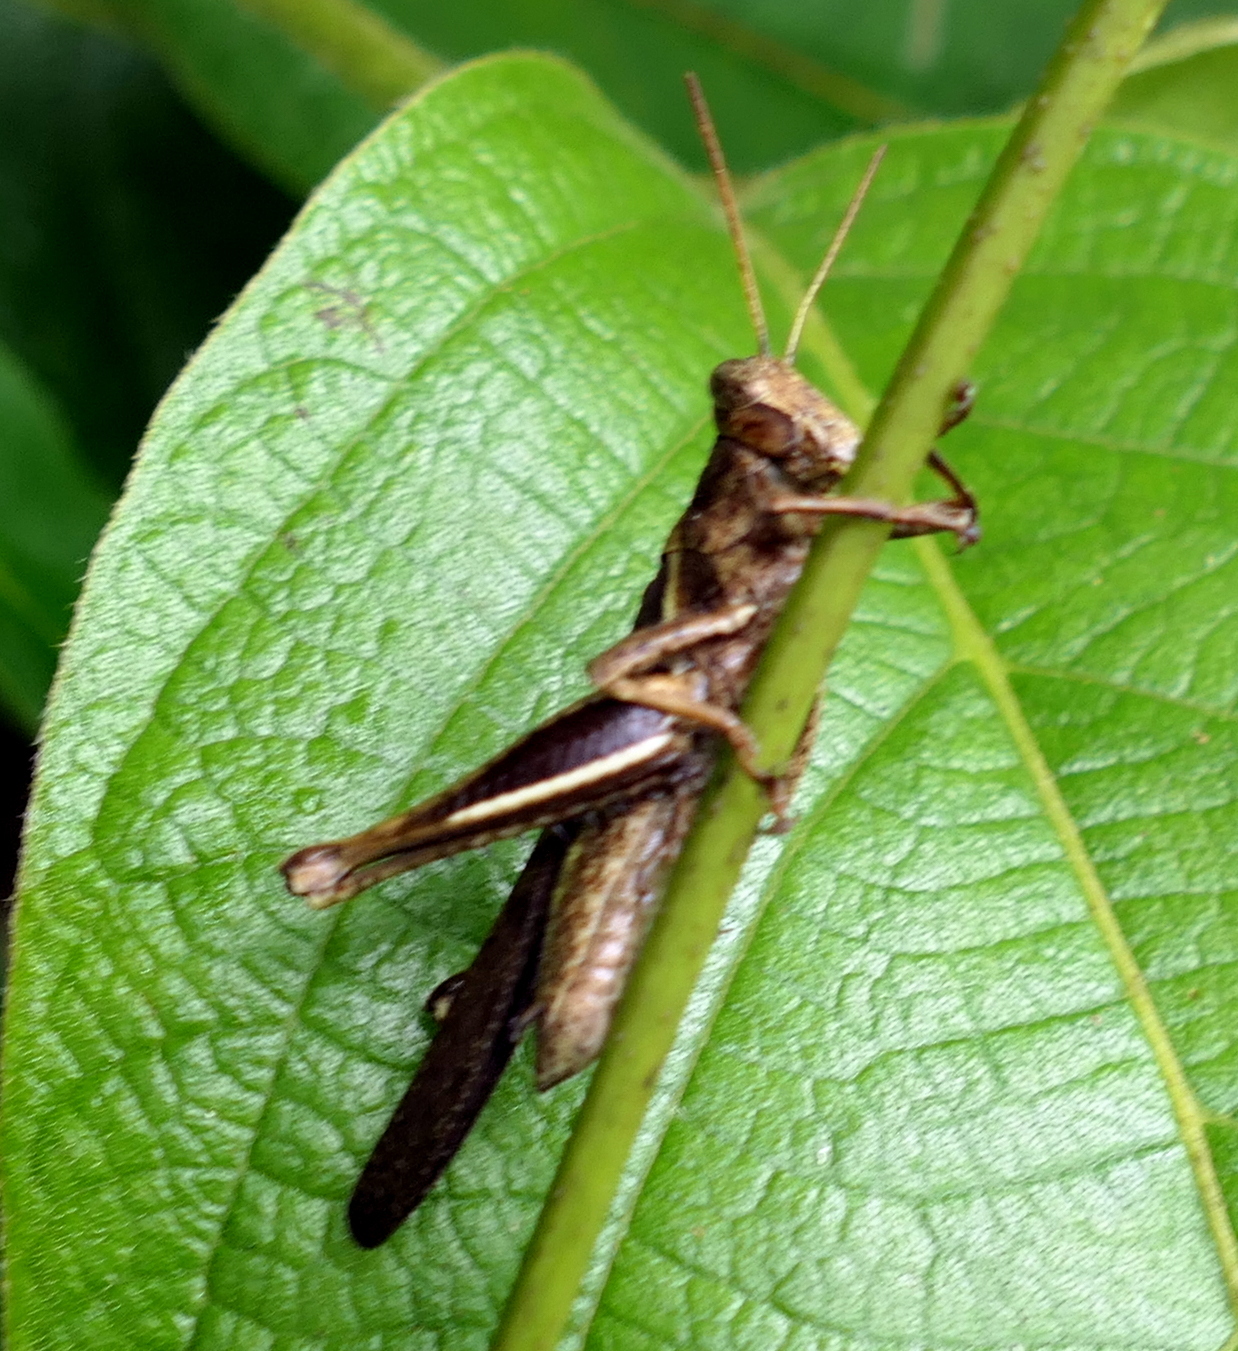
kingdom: Animalia
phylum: Arthropoda
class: Insecta
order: Orthoptera
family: Acrididae
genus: Abracris
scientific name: Abracris flavolineata
